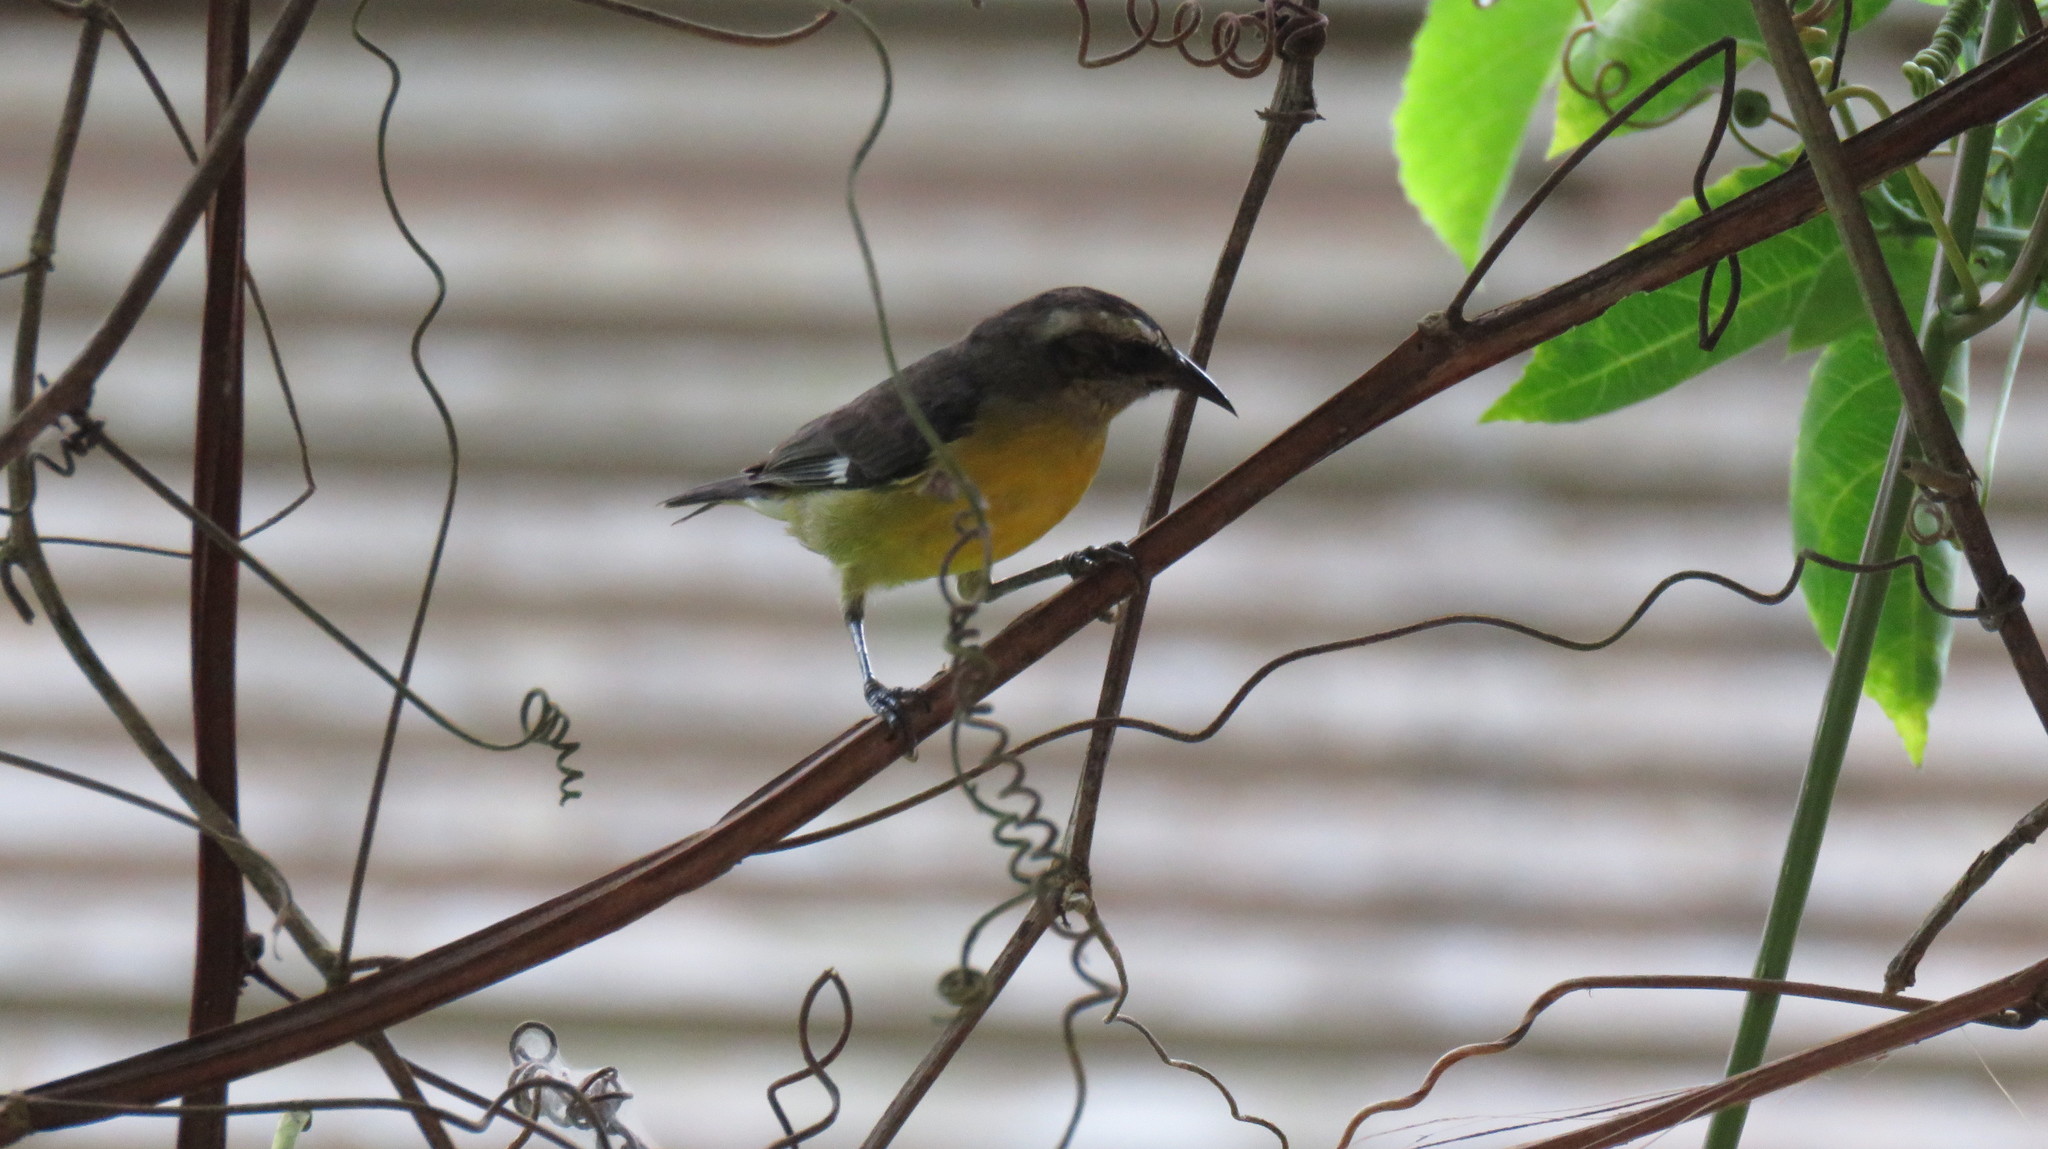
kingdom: Animalia
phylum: Chordata
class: Aves
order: Passeriformes
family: Thraupidae
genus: Coereba
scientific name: Coereba flaveola
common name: Bananaquit
